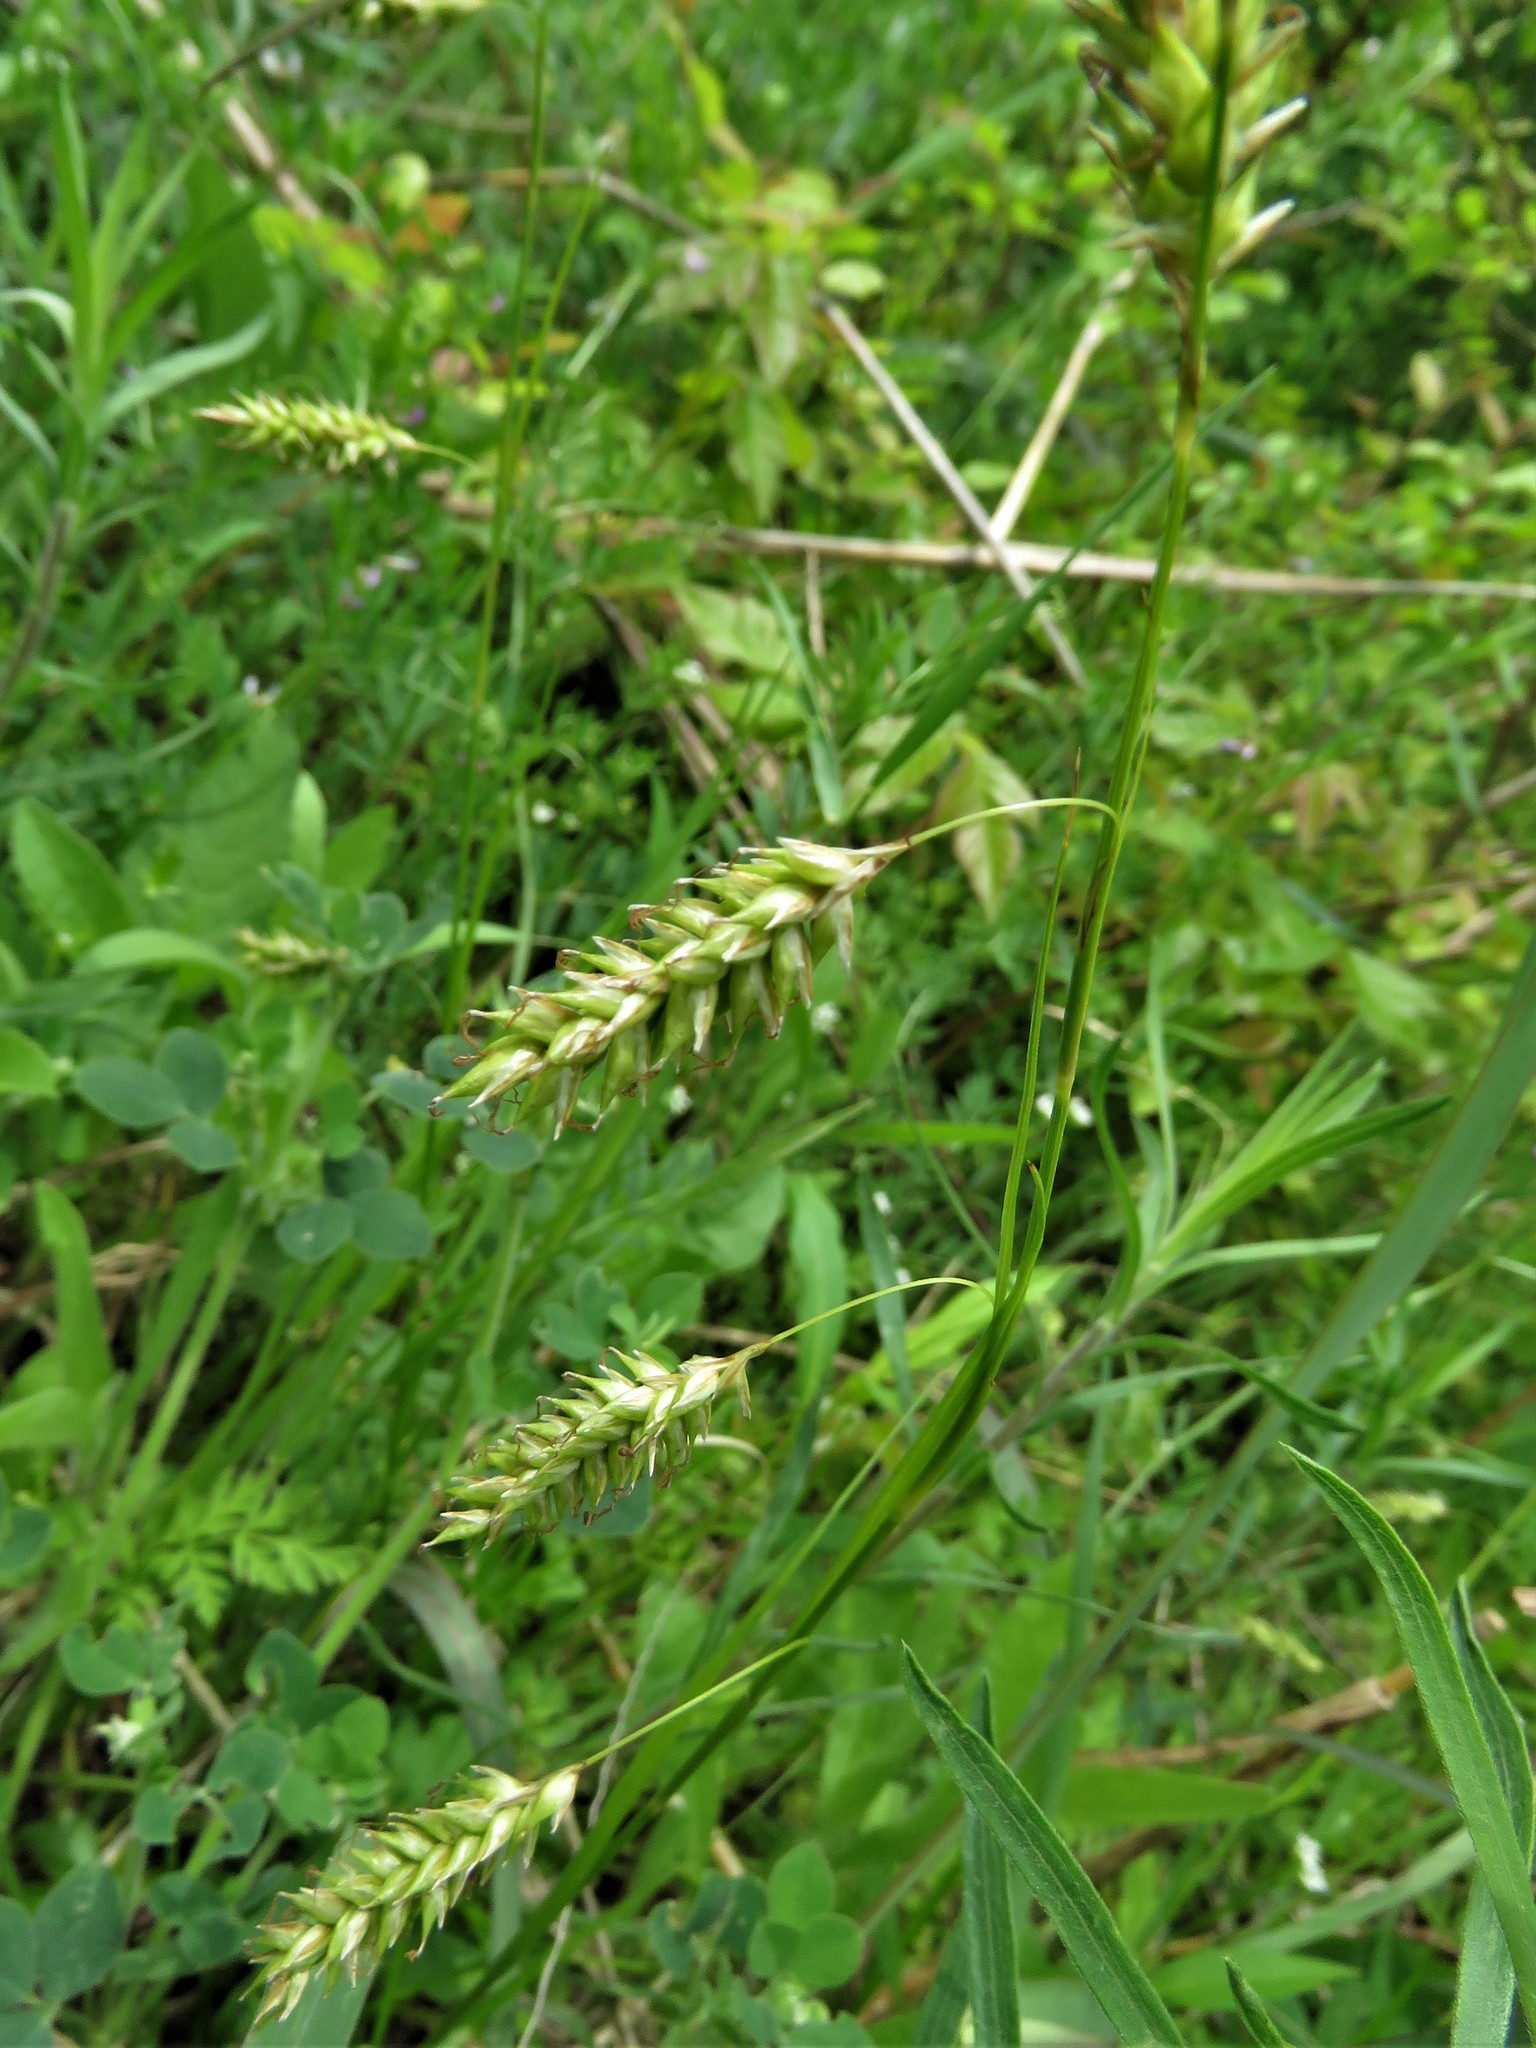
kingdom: Plantae
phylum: Tracheophyta
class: Liliopsida
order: Poales
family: Cyperaceae
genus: Carex
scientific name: Carex cherokeensis
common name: Cherokee sedge
